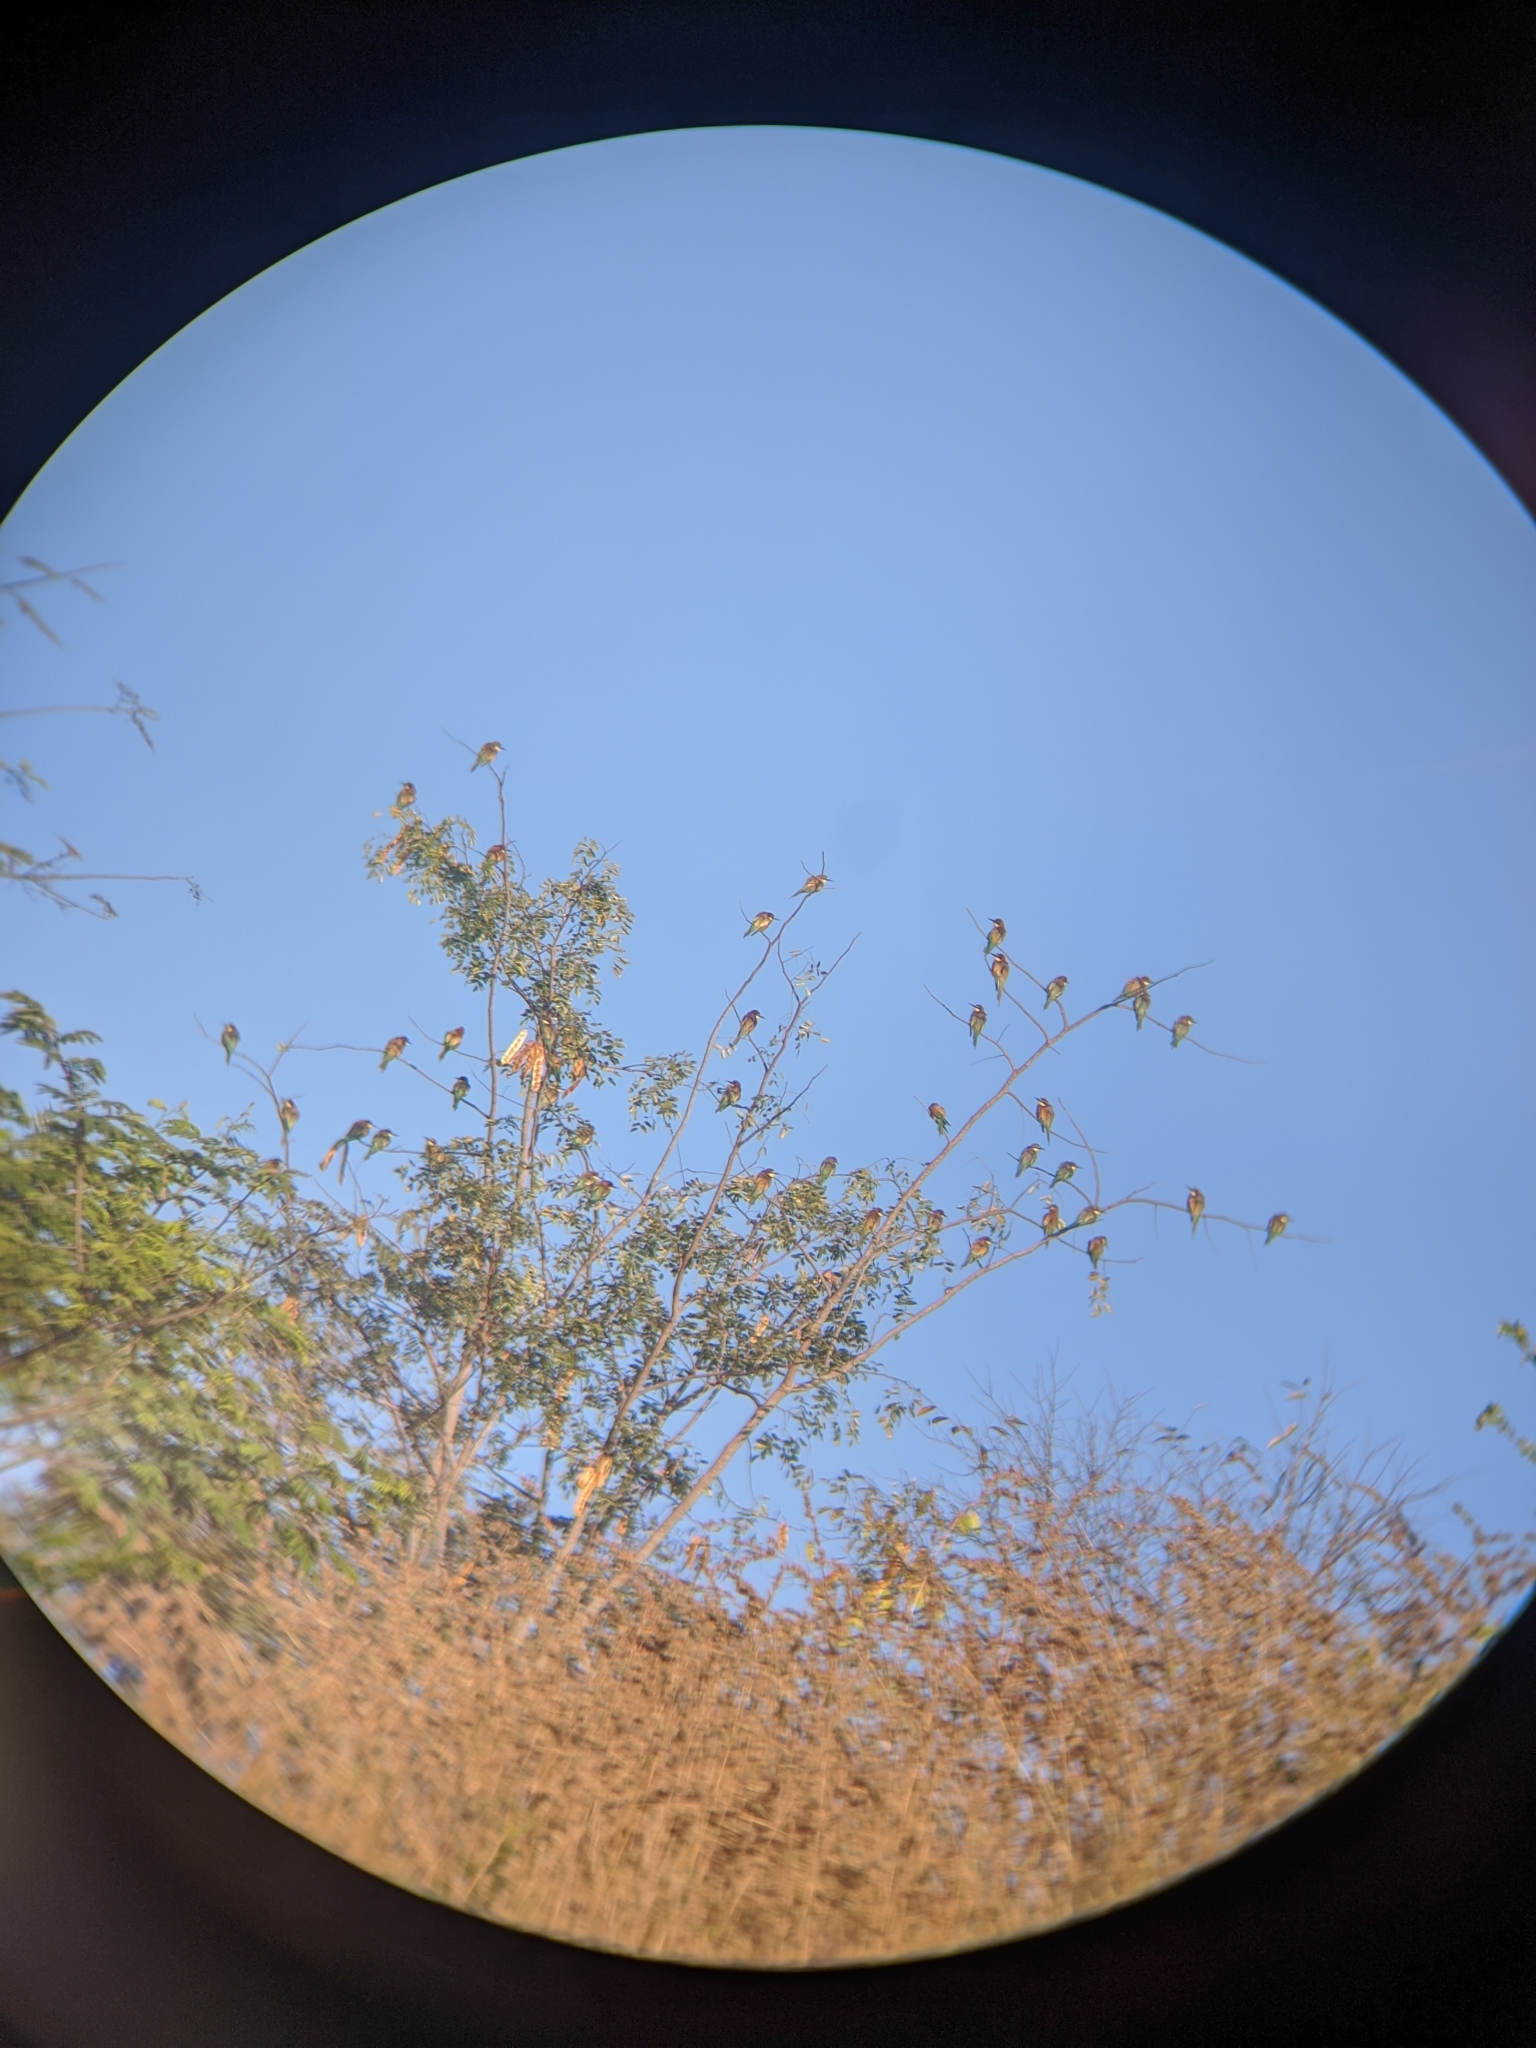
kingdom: Animalia
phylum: Chordata
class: Aves
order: Coraciiformes
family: Meropidae
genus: Merops
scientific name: Merops apiaster
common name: European bee-eater
